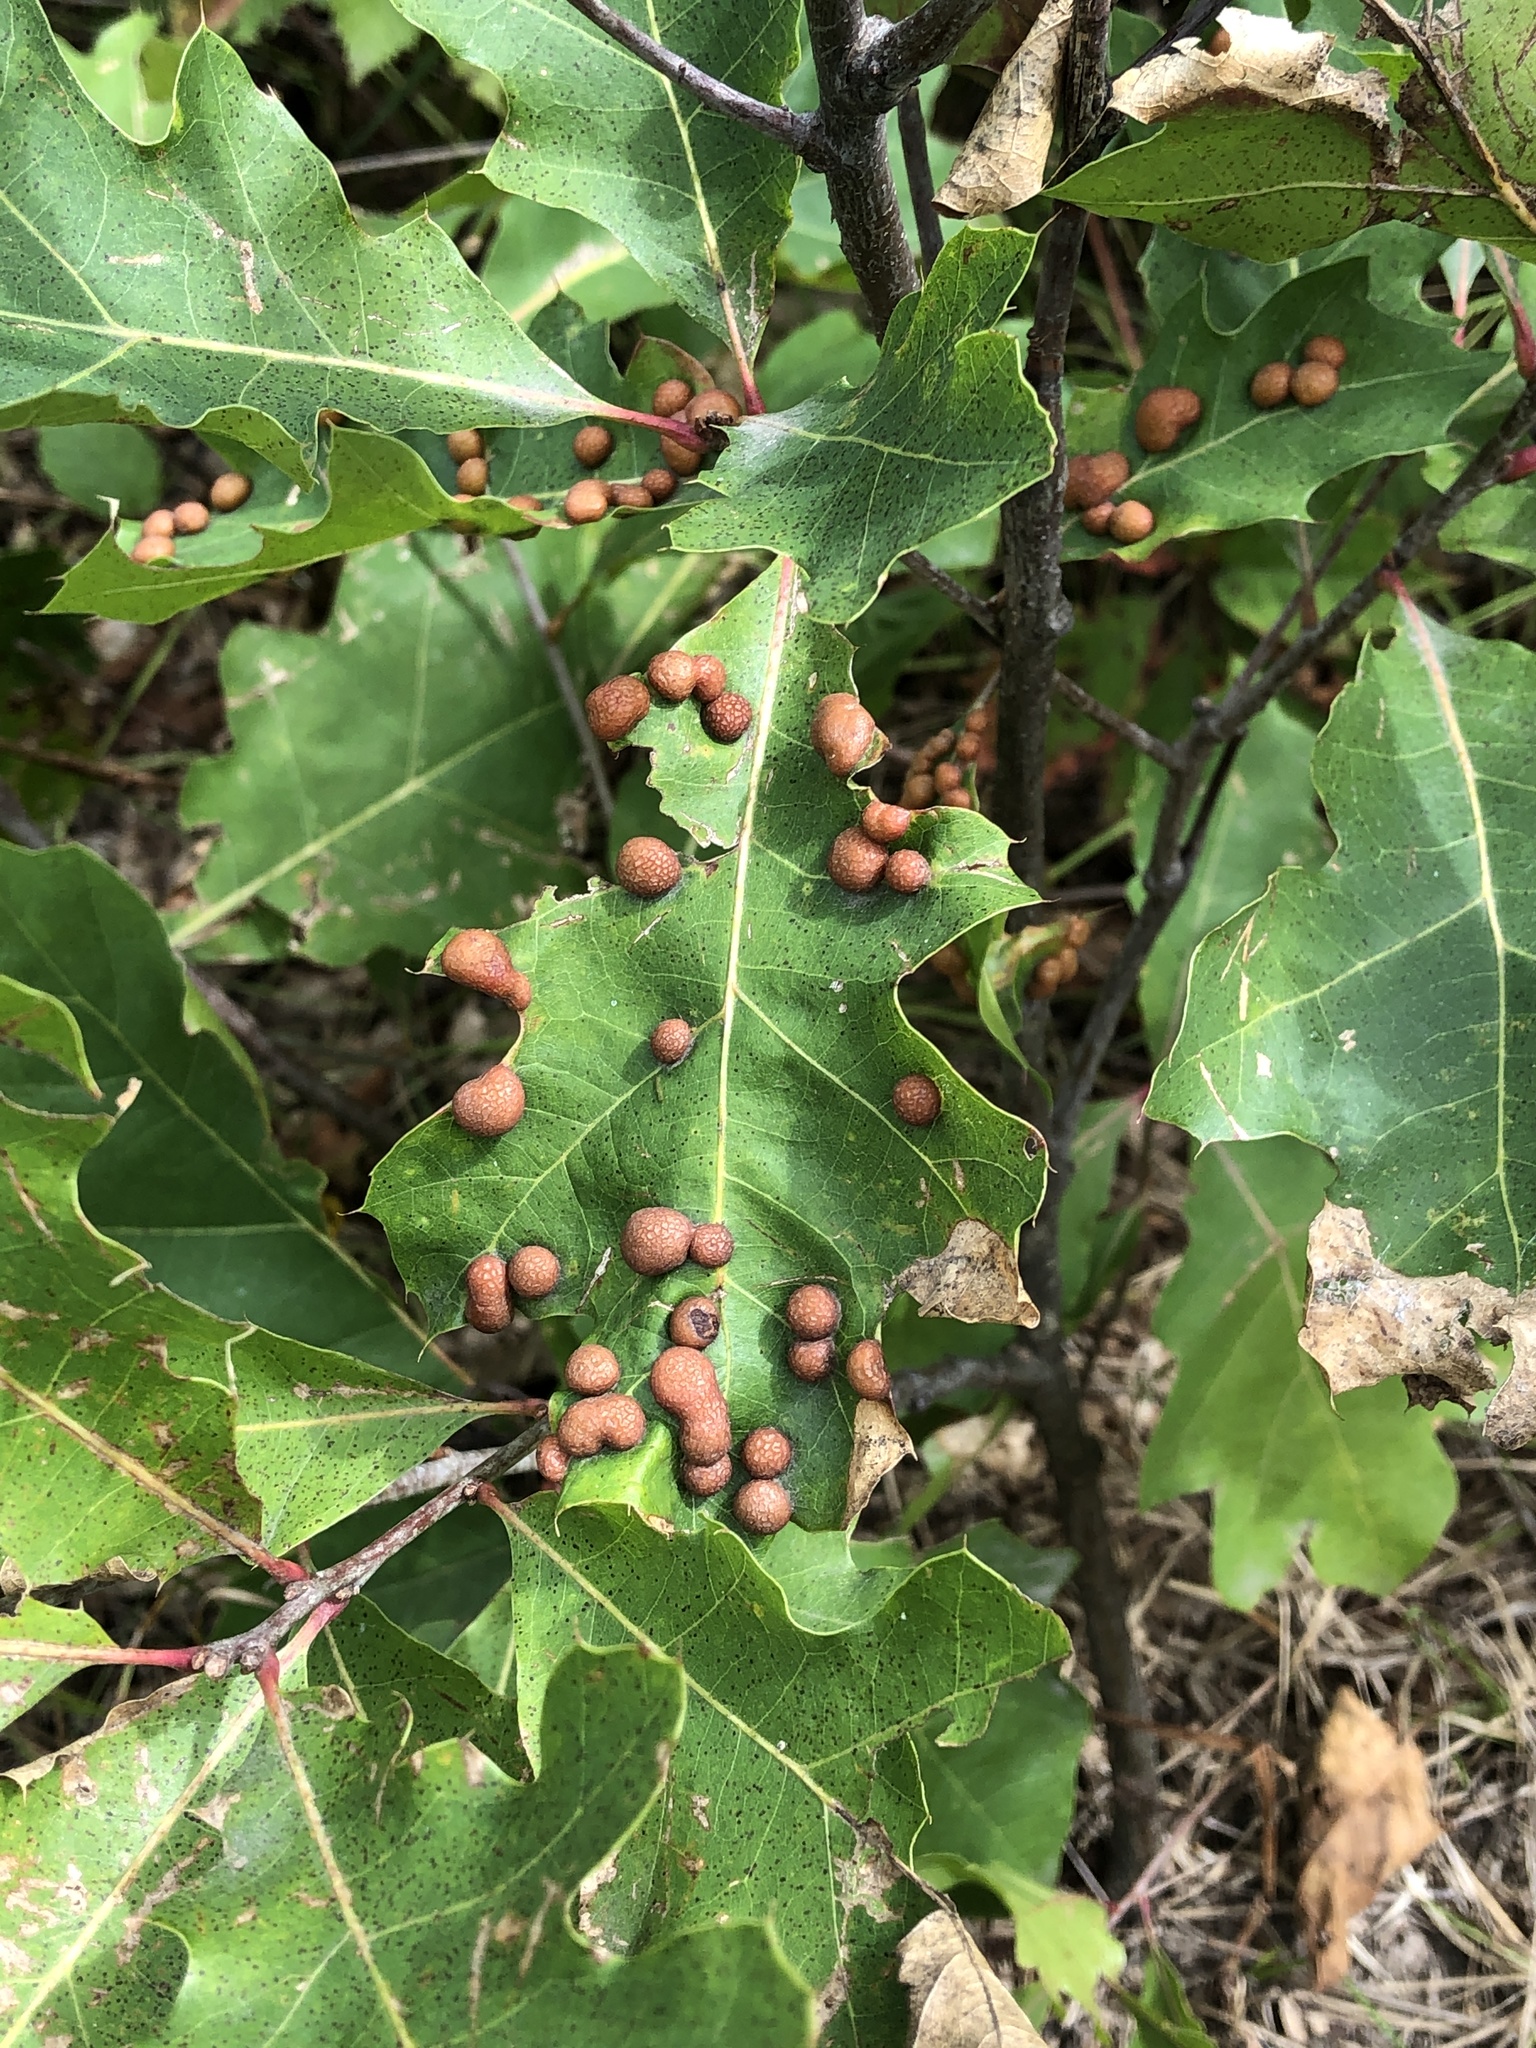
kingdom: Animalia
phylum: Arthropoda
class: Insecta
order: Diptera
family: Cecidomyiidae
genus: Polystepha
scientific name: Polystepha pilulae
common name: Oak leaf gall midge
